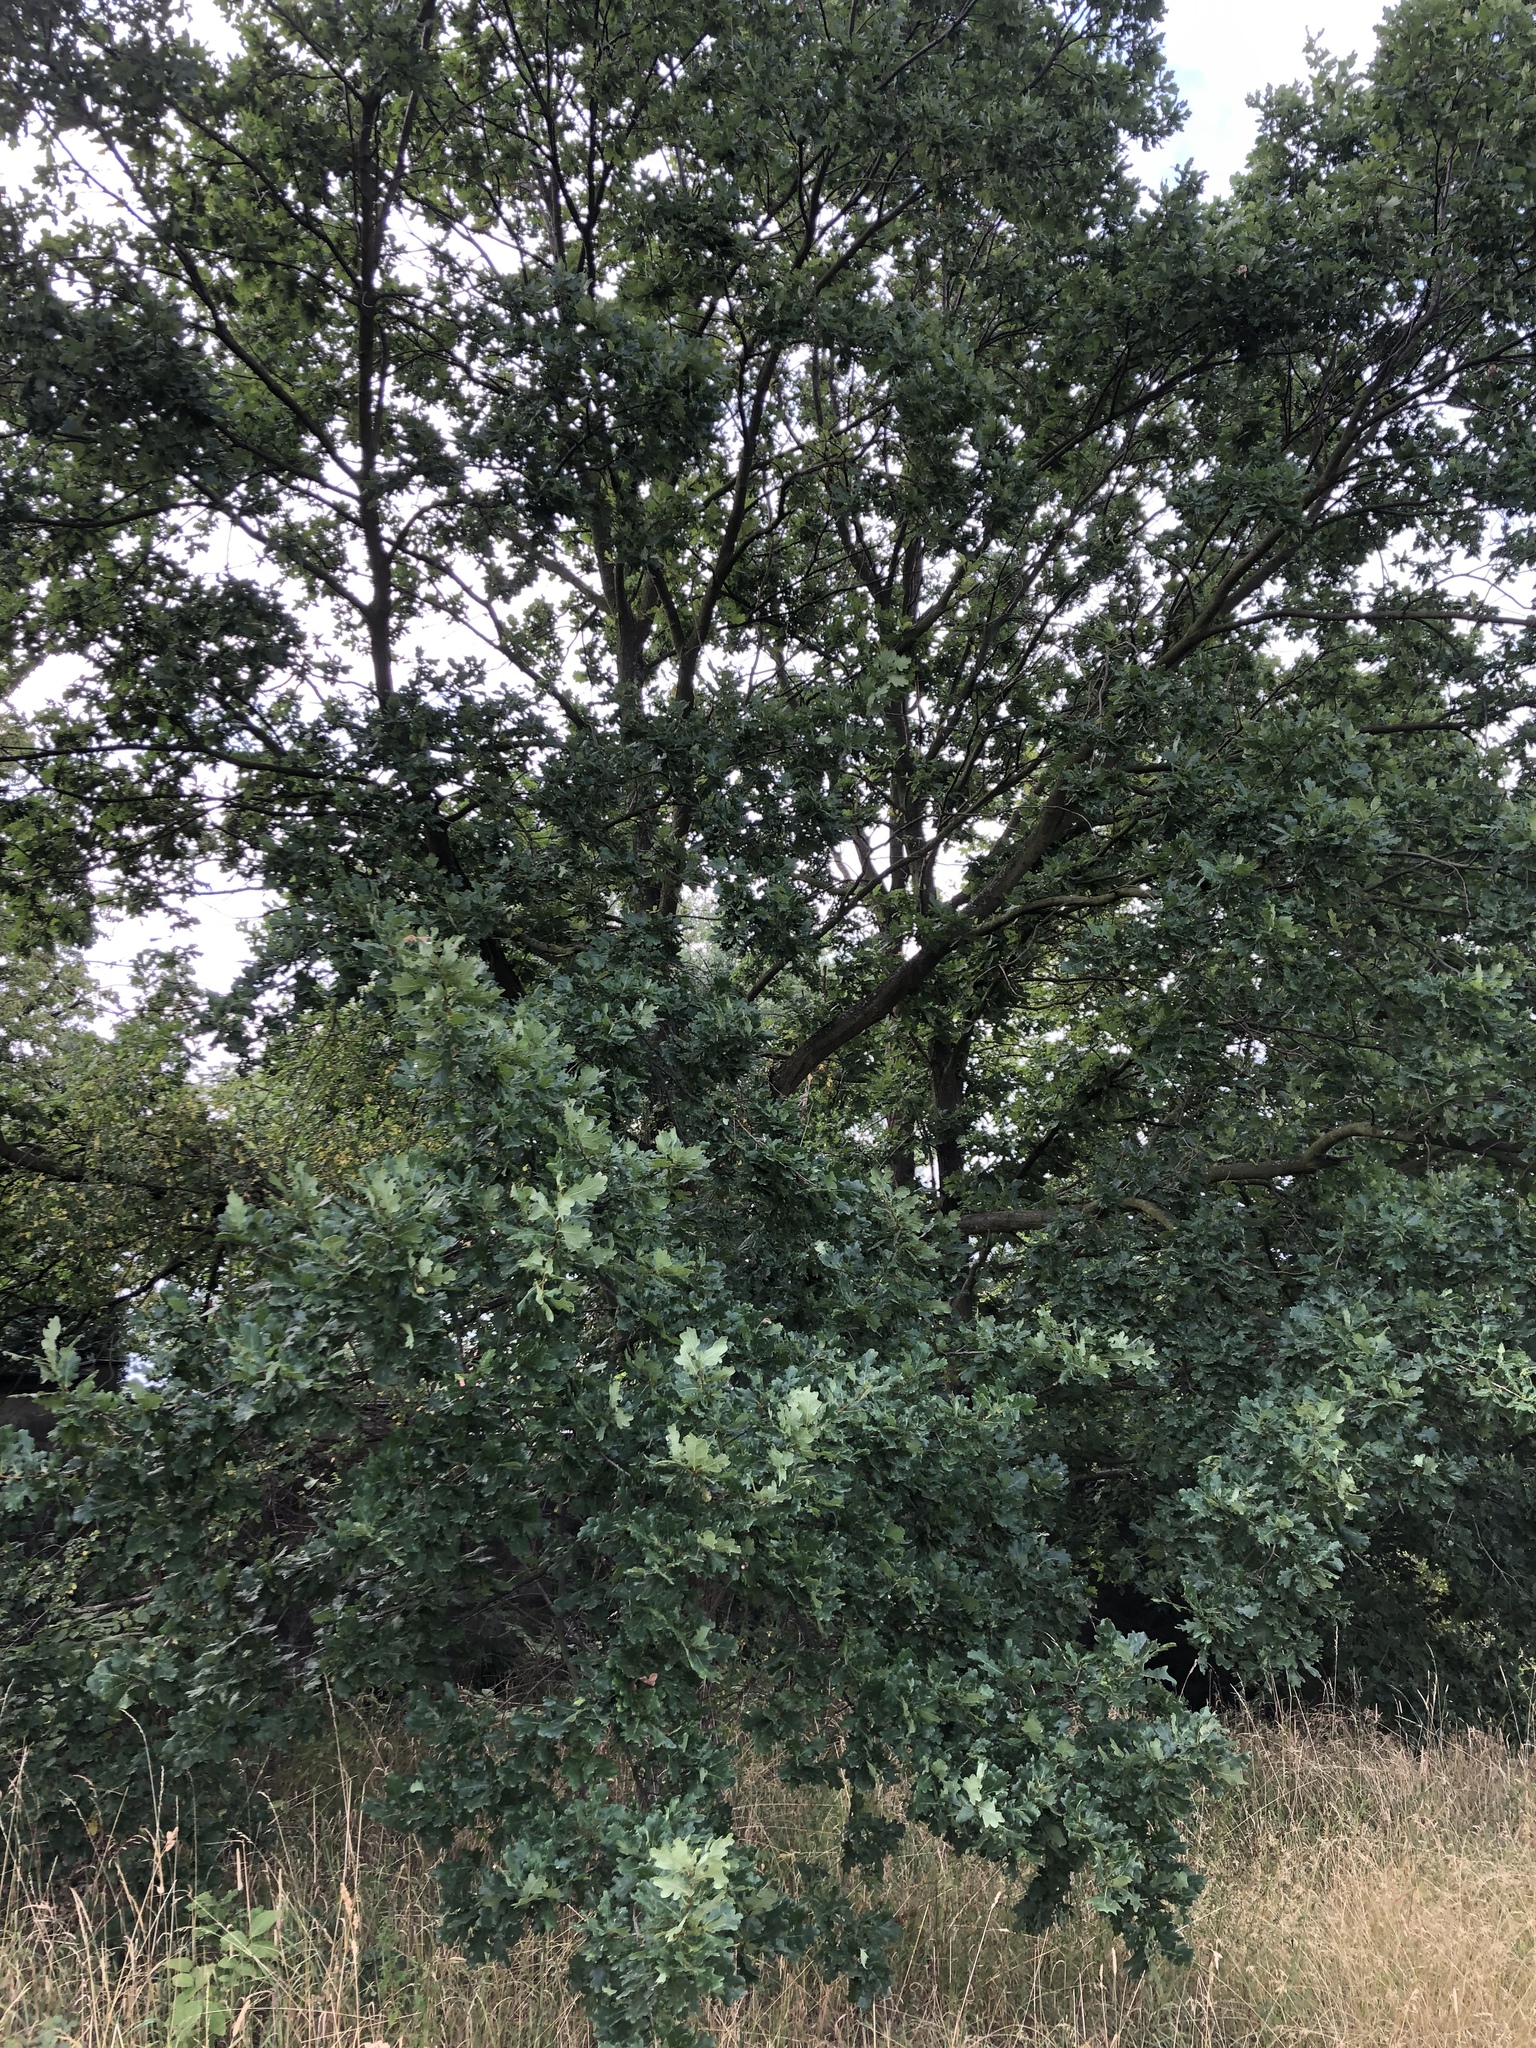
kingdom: Plantae
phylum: Tracheophyta
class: Magnoliopsida
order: Fagales
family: Fagaceae
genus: Quercus
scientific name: Quercus robur
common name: Pedunculate oak
